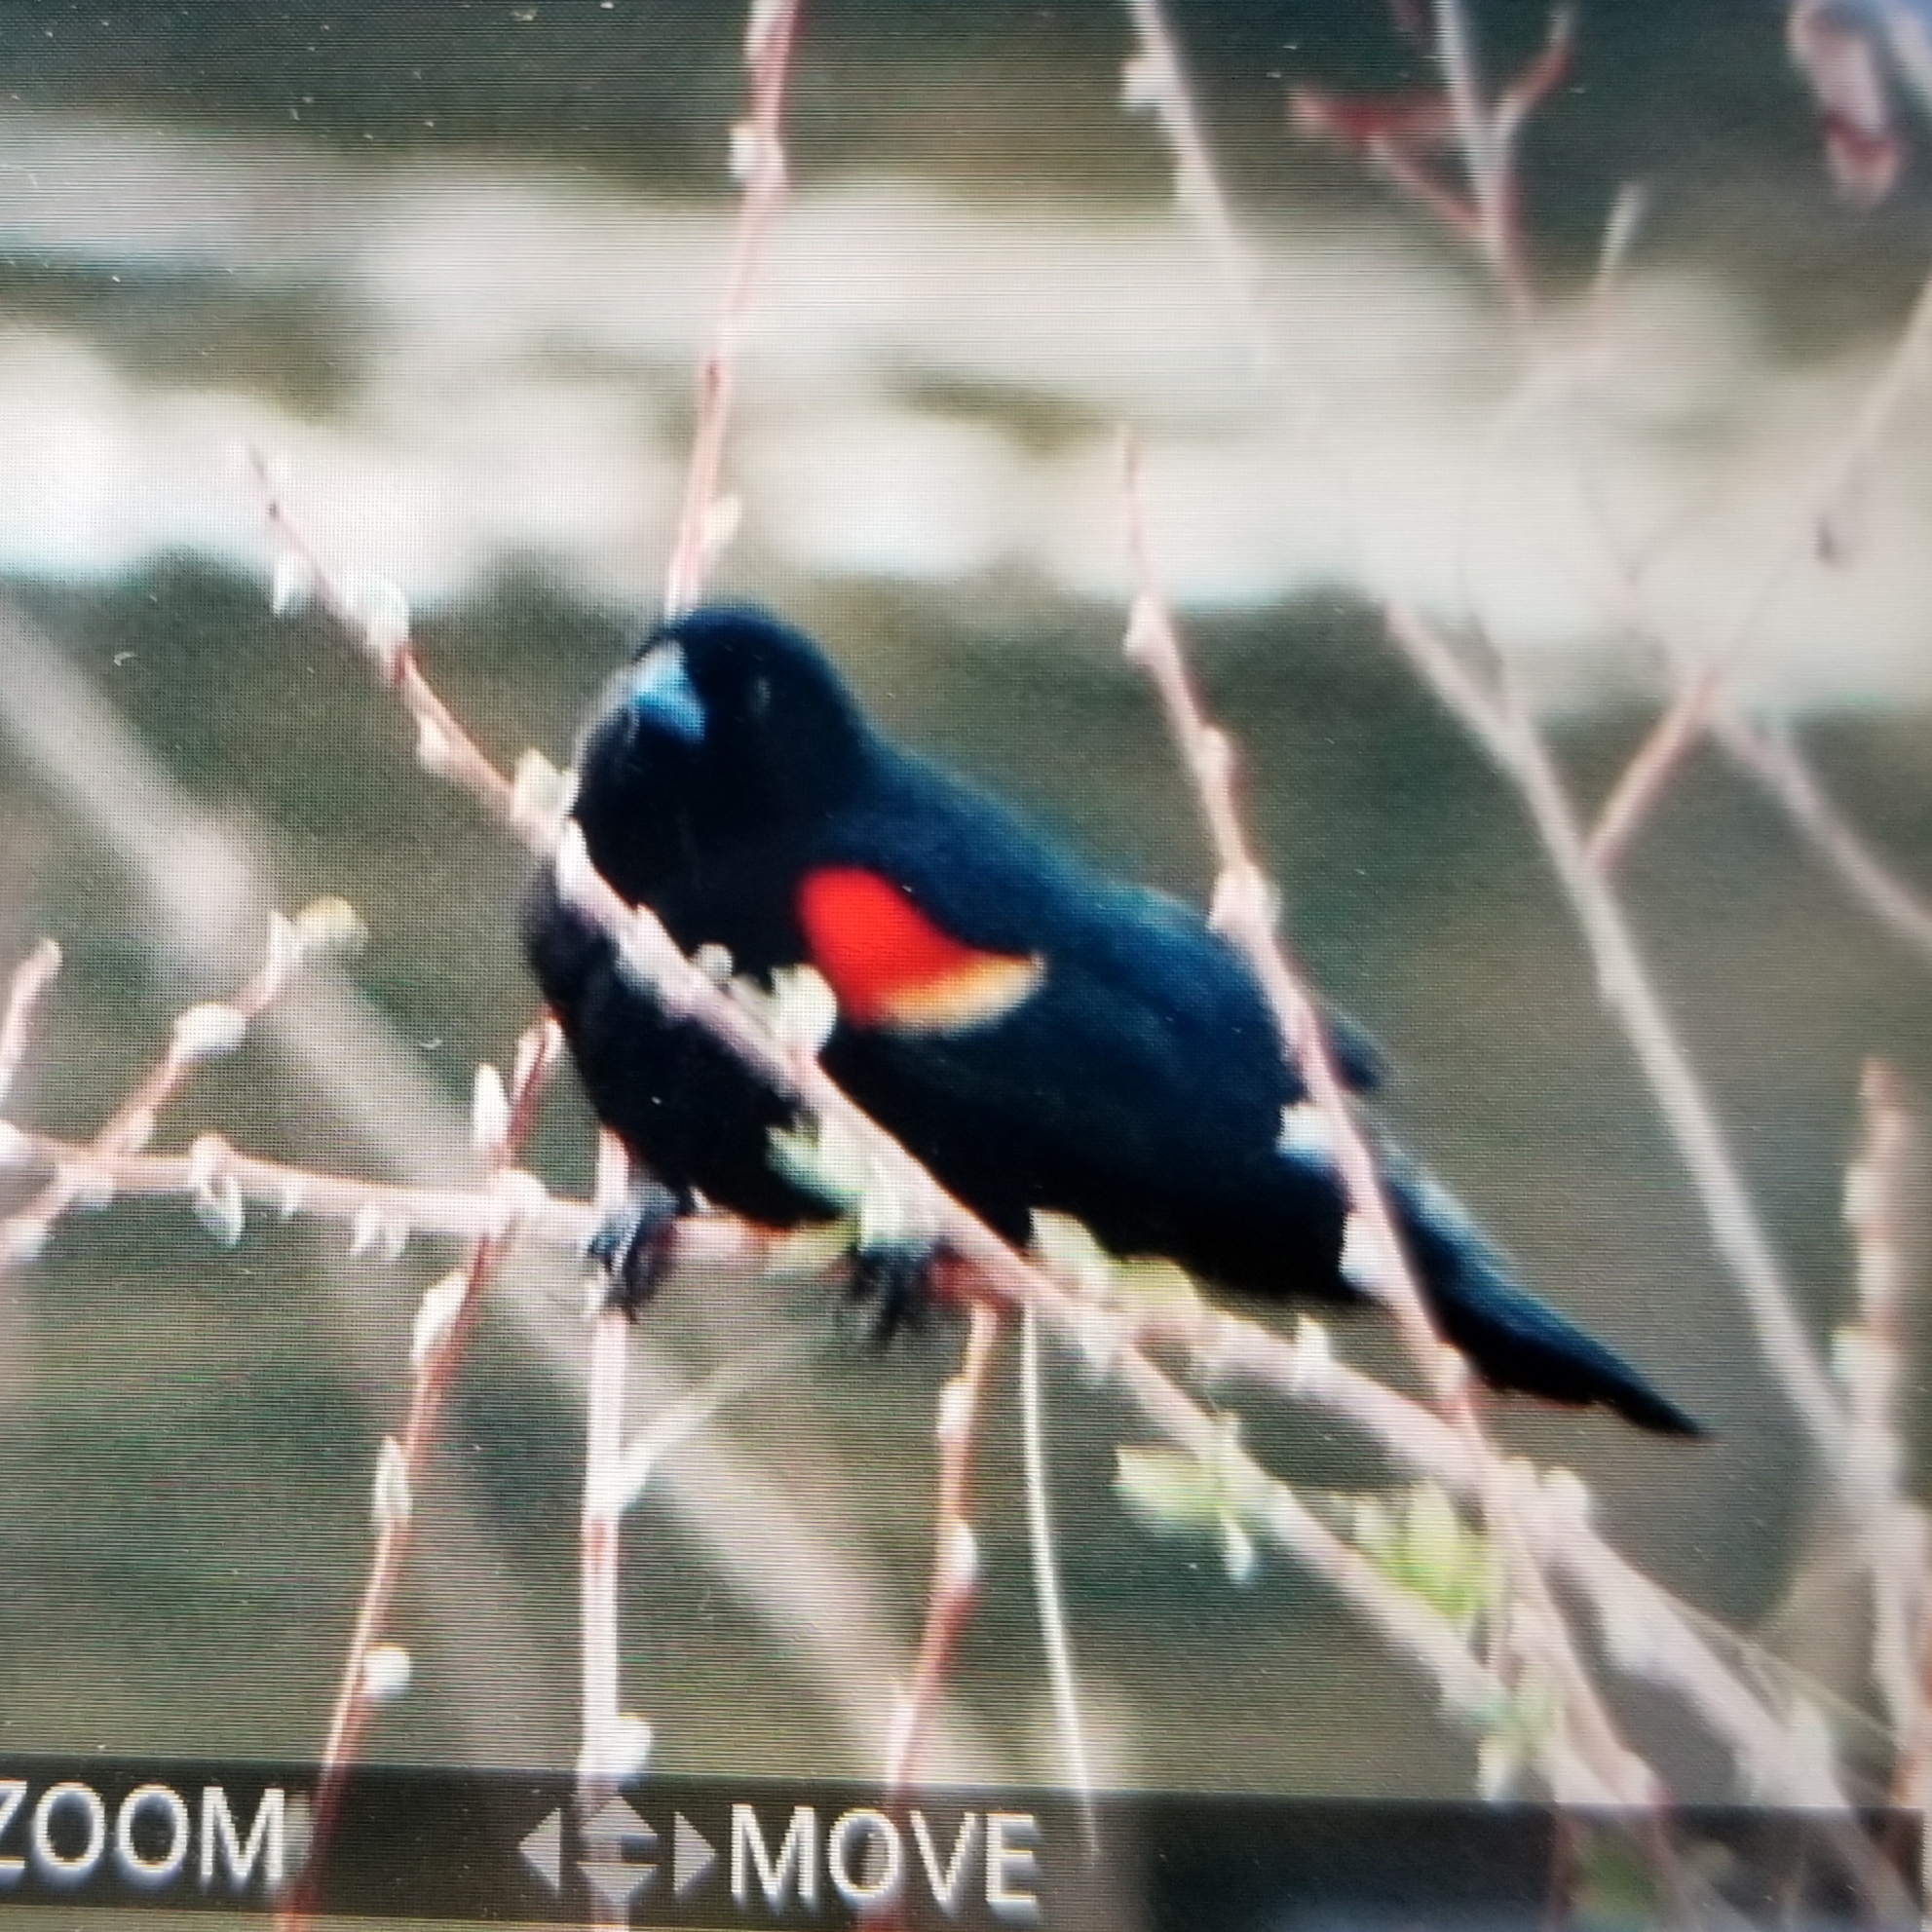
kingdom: Animalia
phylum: Chordata
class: Aves
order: Passeriformes
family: Icteridae
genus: Agelaius
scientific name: Agelaius phoeniceus
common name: Red-winged blackbird
